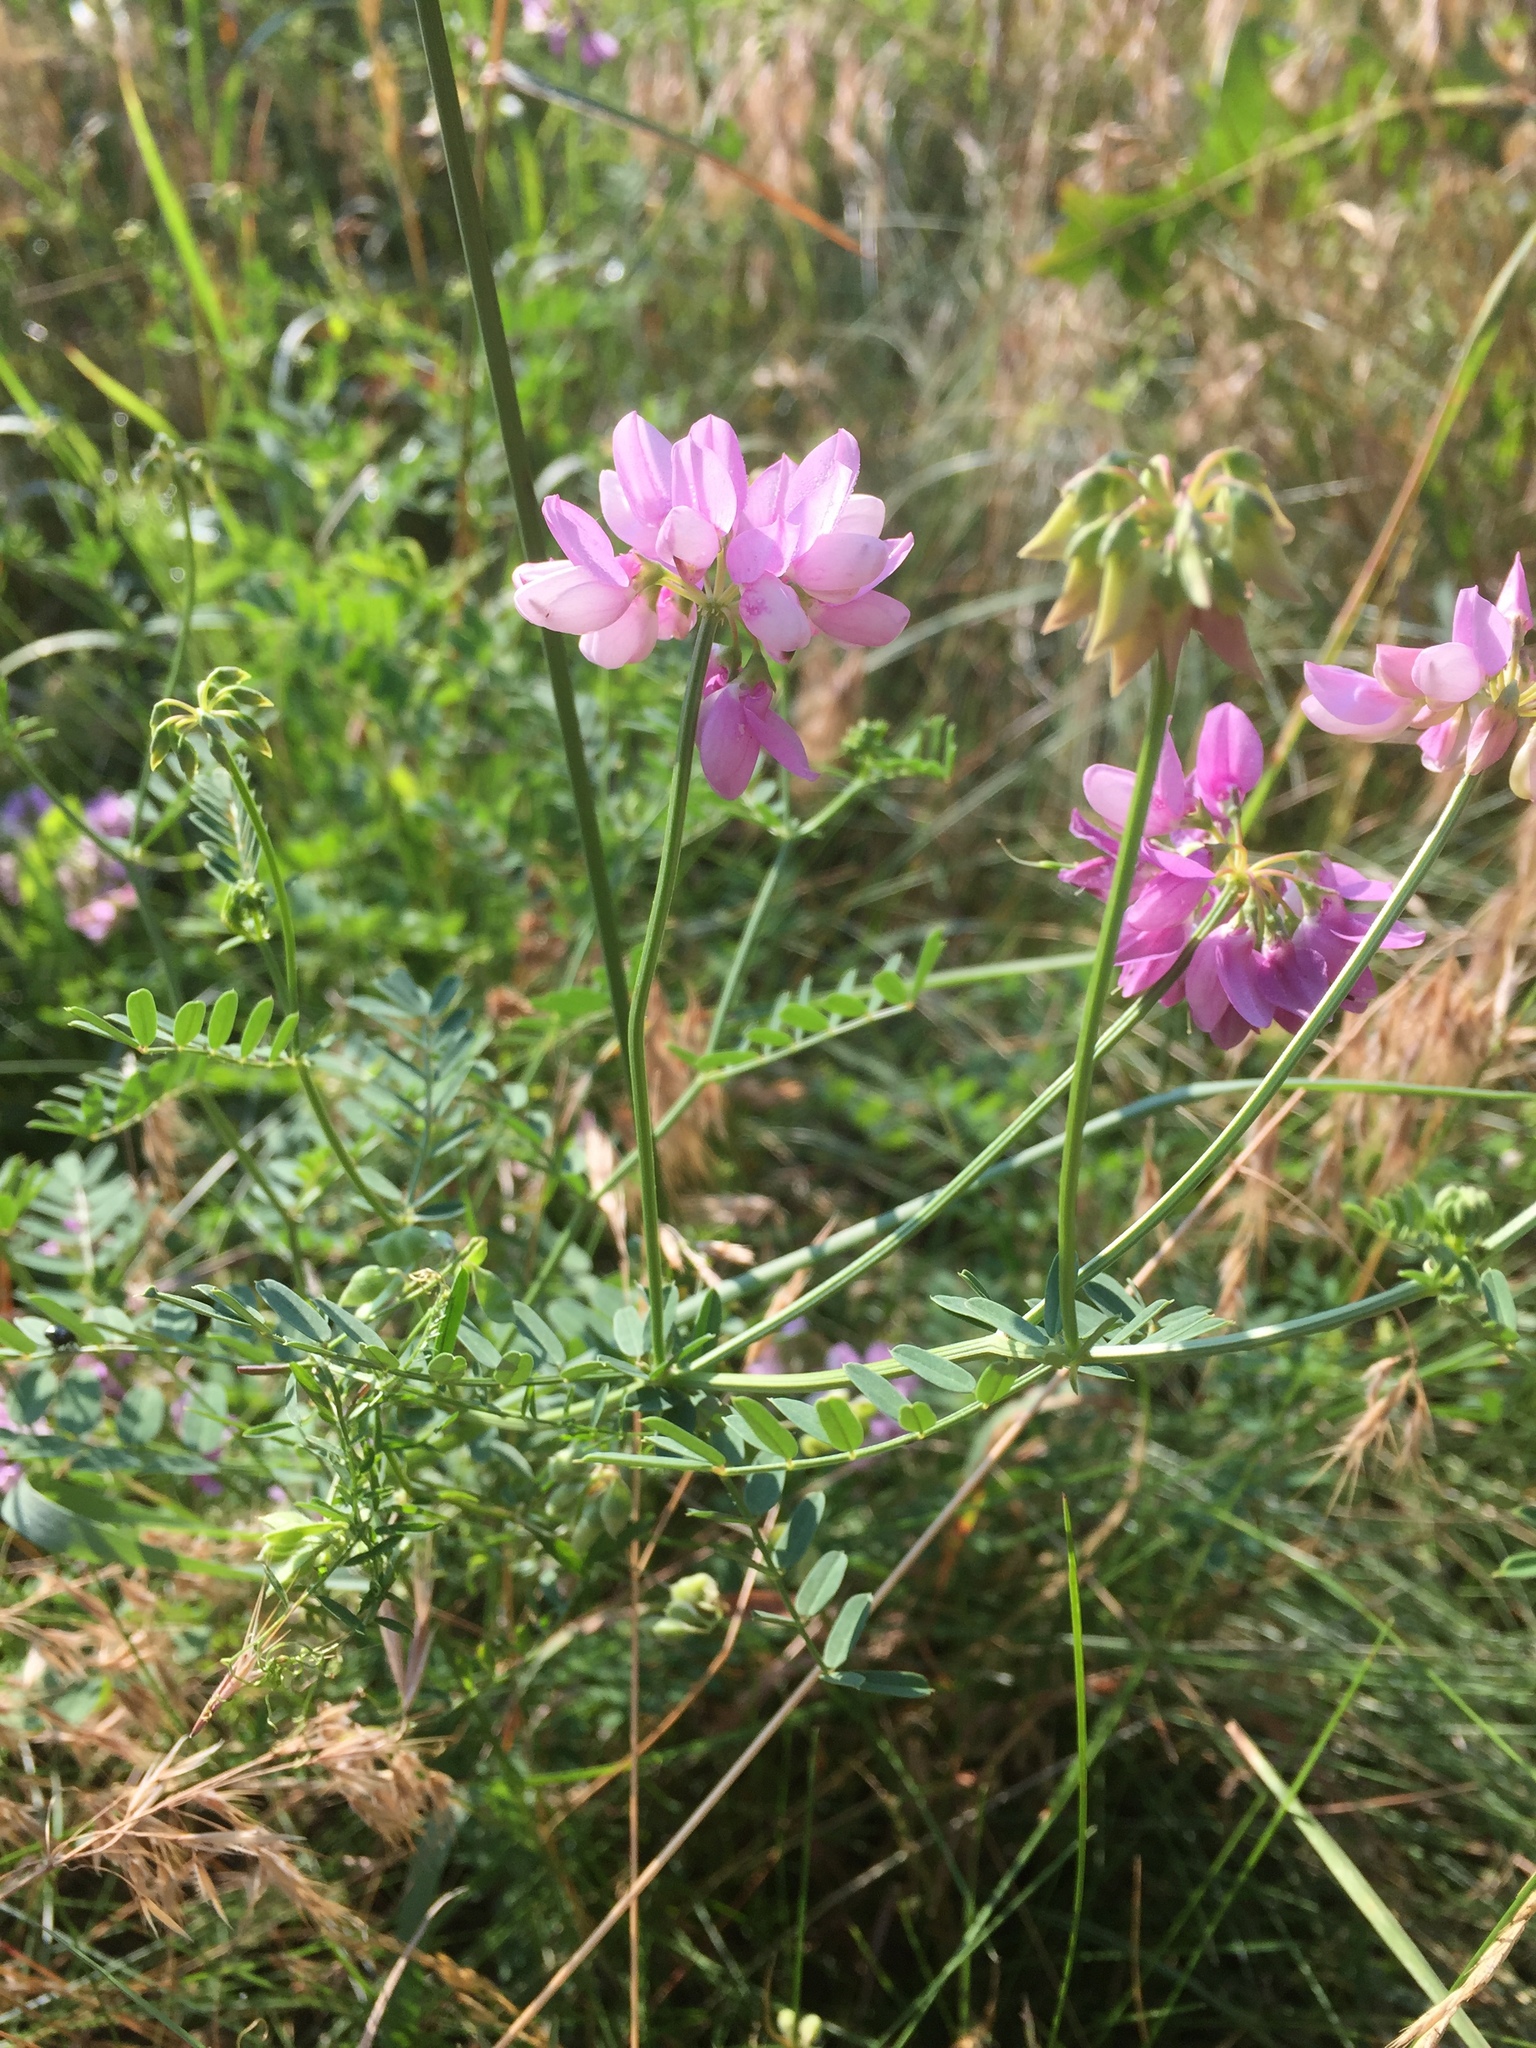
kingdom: Plantae
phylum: Tracheophyta
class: Magnoliopsida
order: Fabales
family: Fabaceae
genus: Coronilla
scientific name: Coronilla varia
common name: Crownvetch
